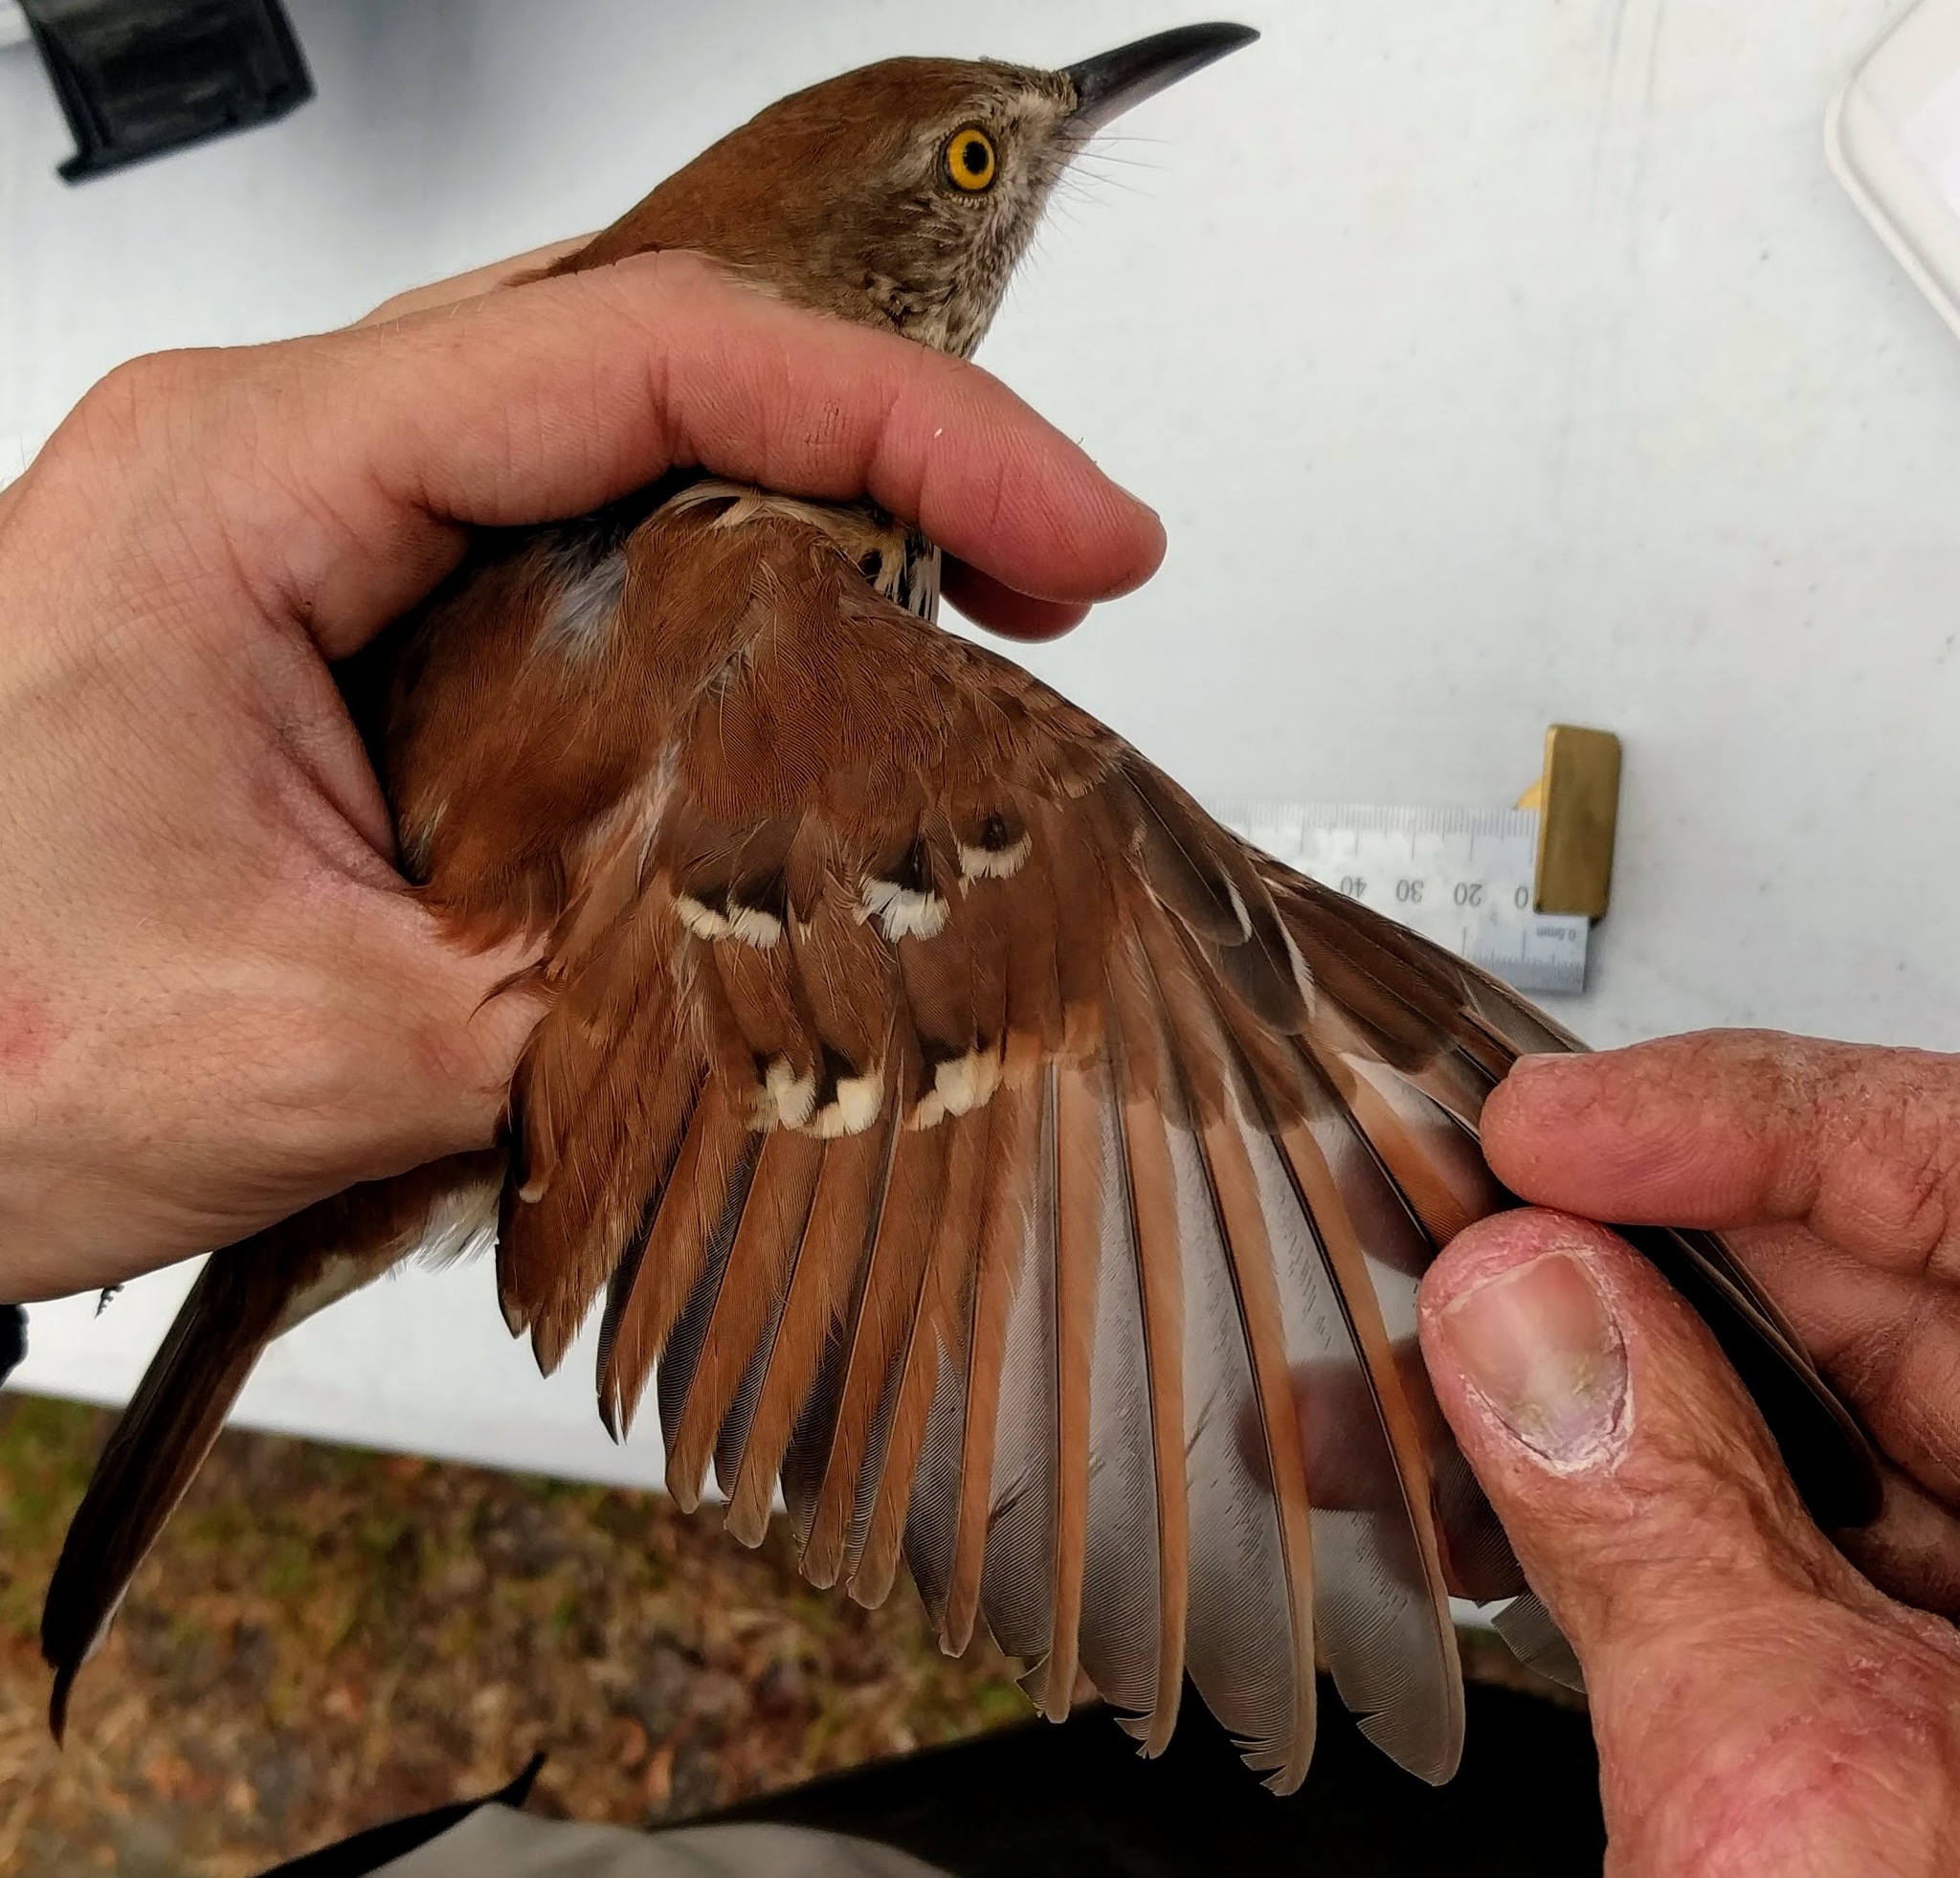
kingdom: Animalia
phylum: Chordata
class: Aves
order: Passeriformes
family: Mimidae
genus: Toxostoma
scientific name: Toxostoma rufum
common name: Brown thrasher
